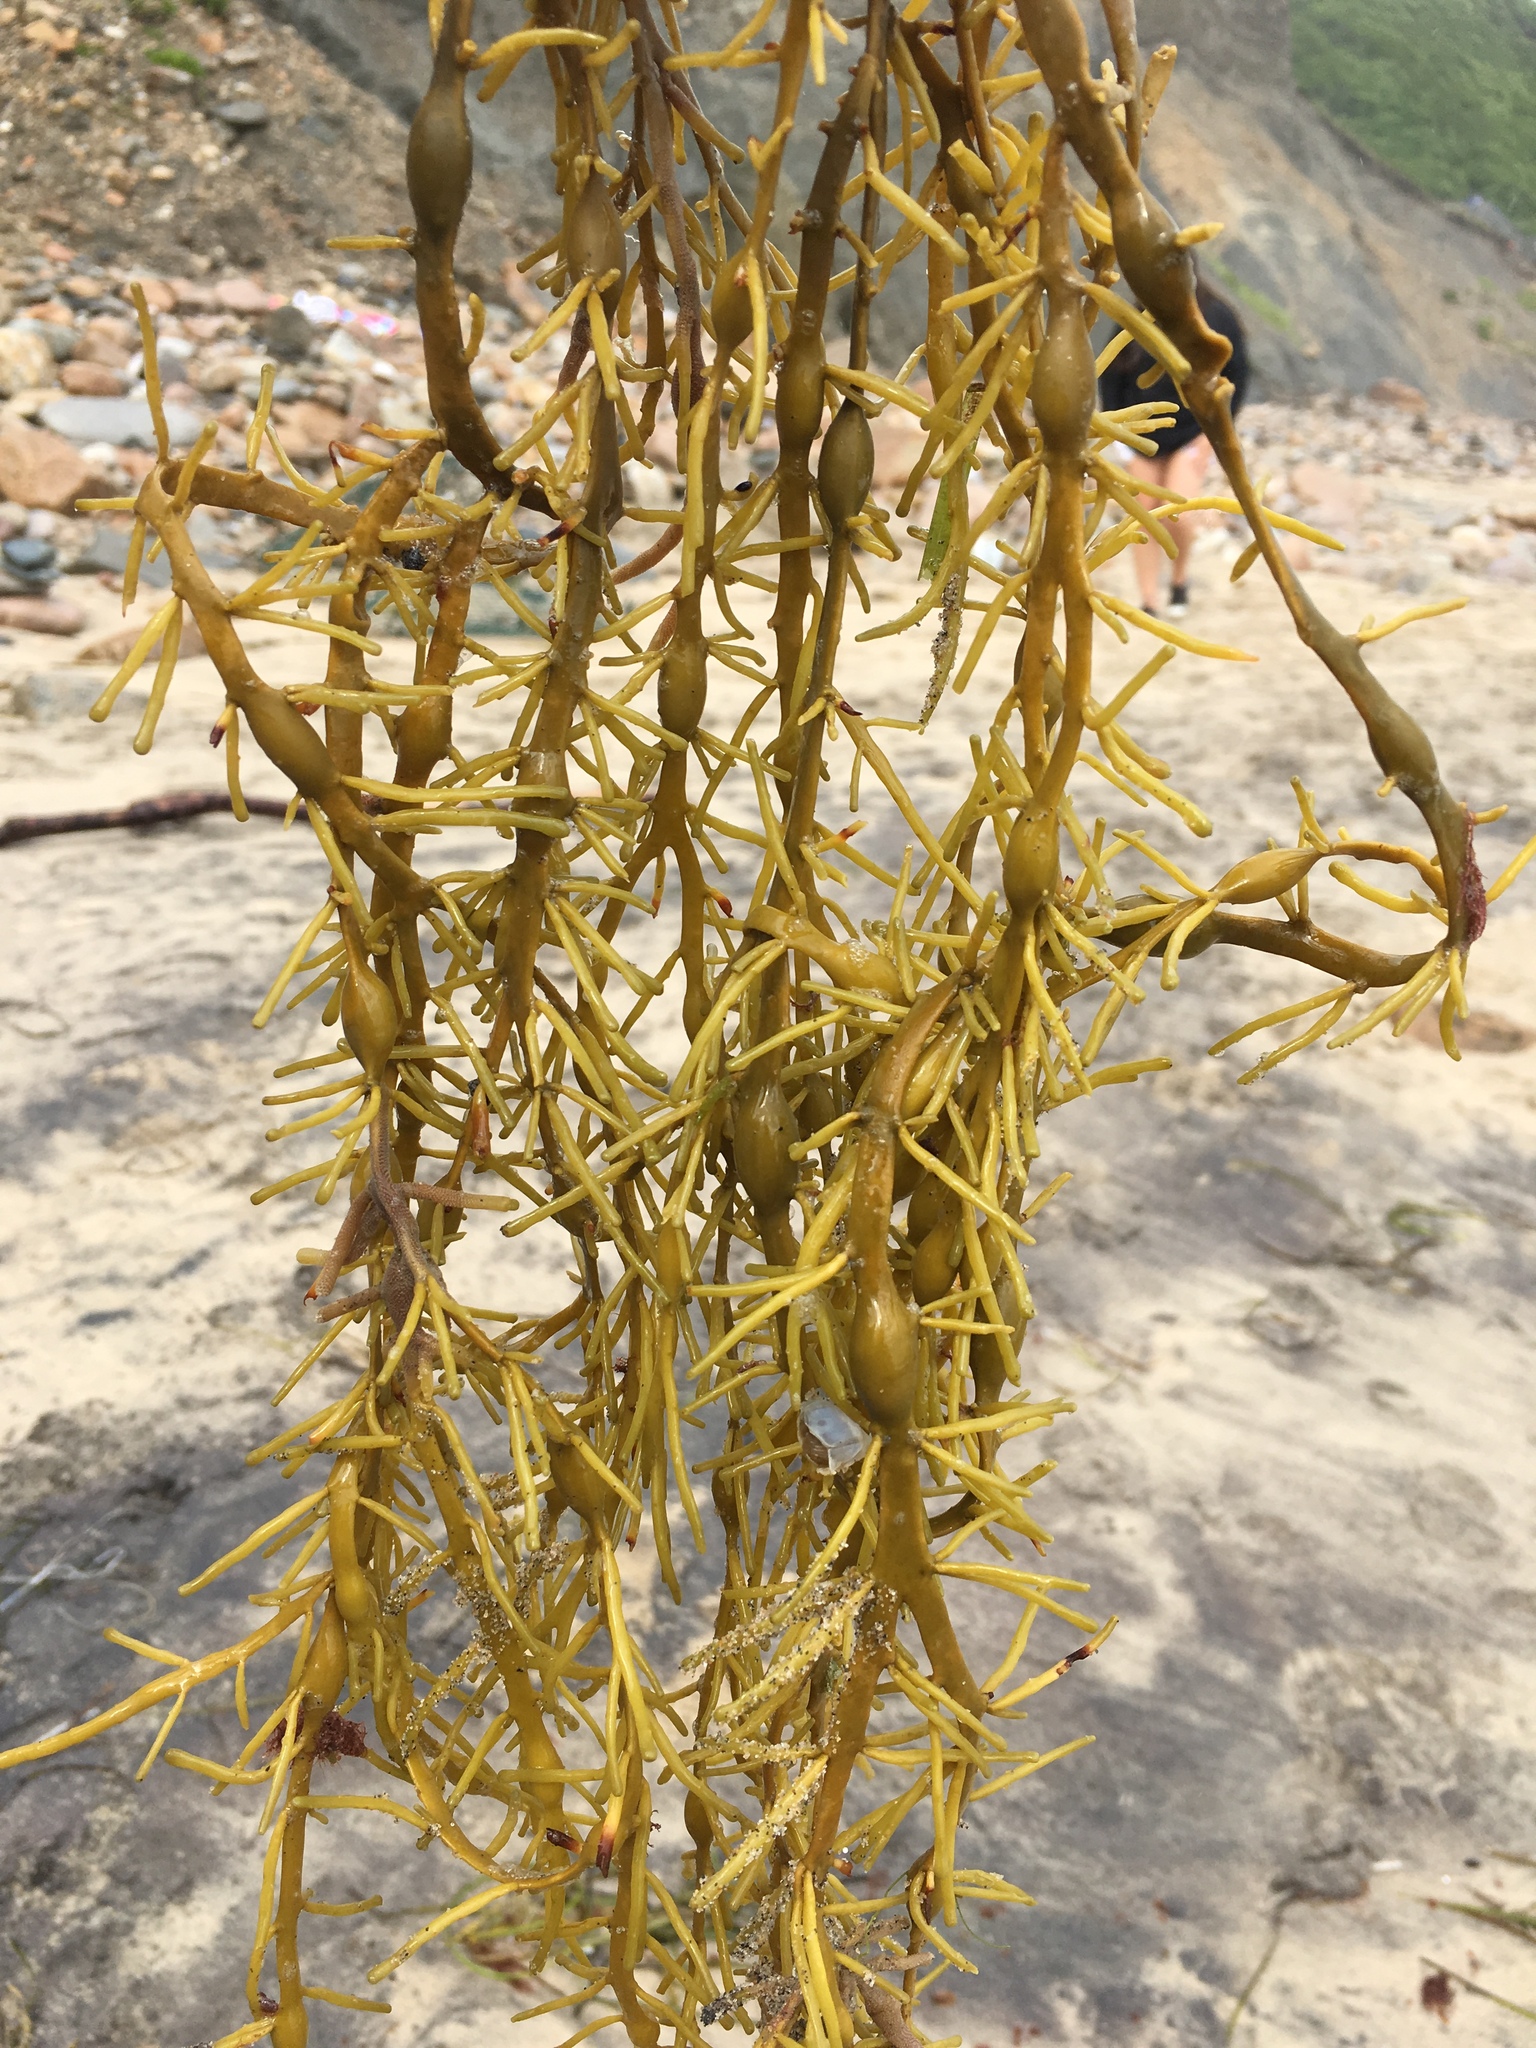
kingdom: Chromista
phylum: Ochrophyta
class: Phaeophyceae
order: Fucales
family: Fucaceae
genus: Ascophyllum
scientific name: Ascophyllum nodosum
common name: Knotted wrack
